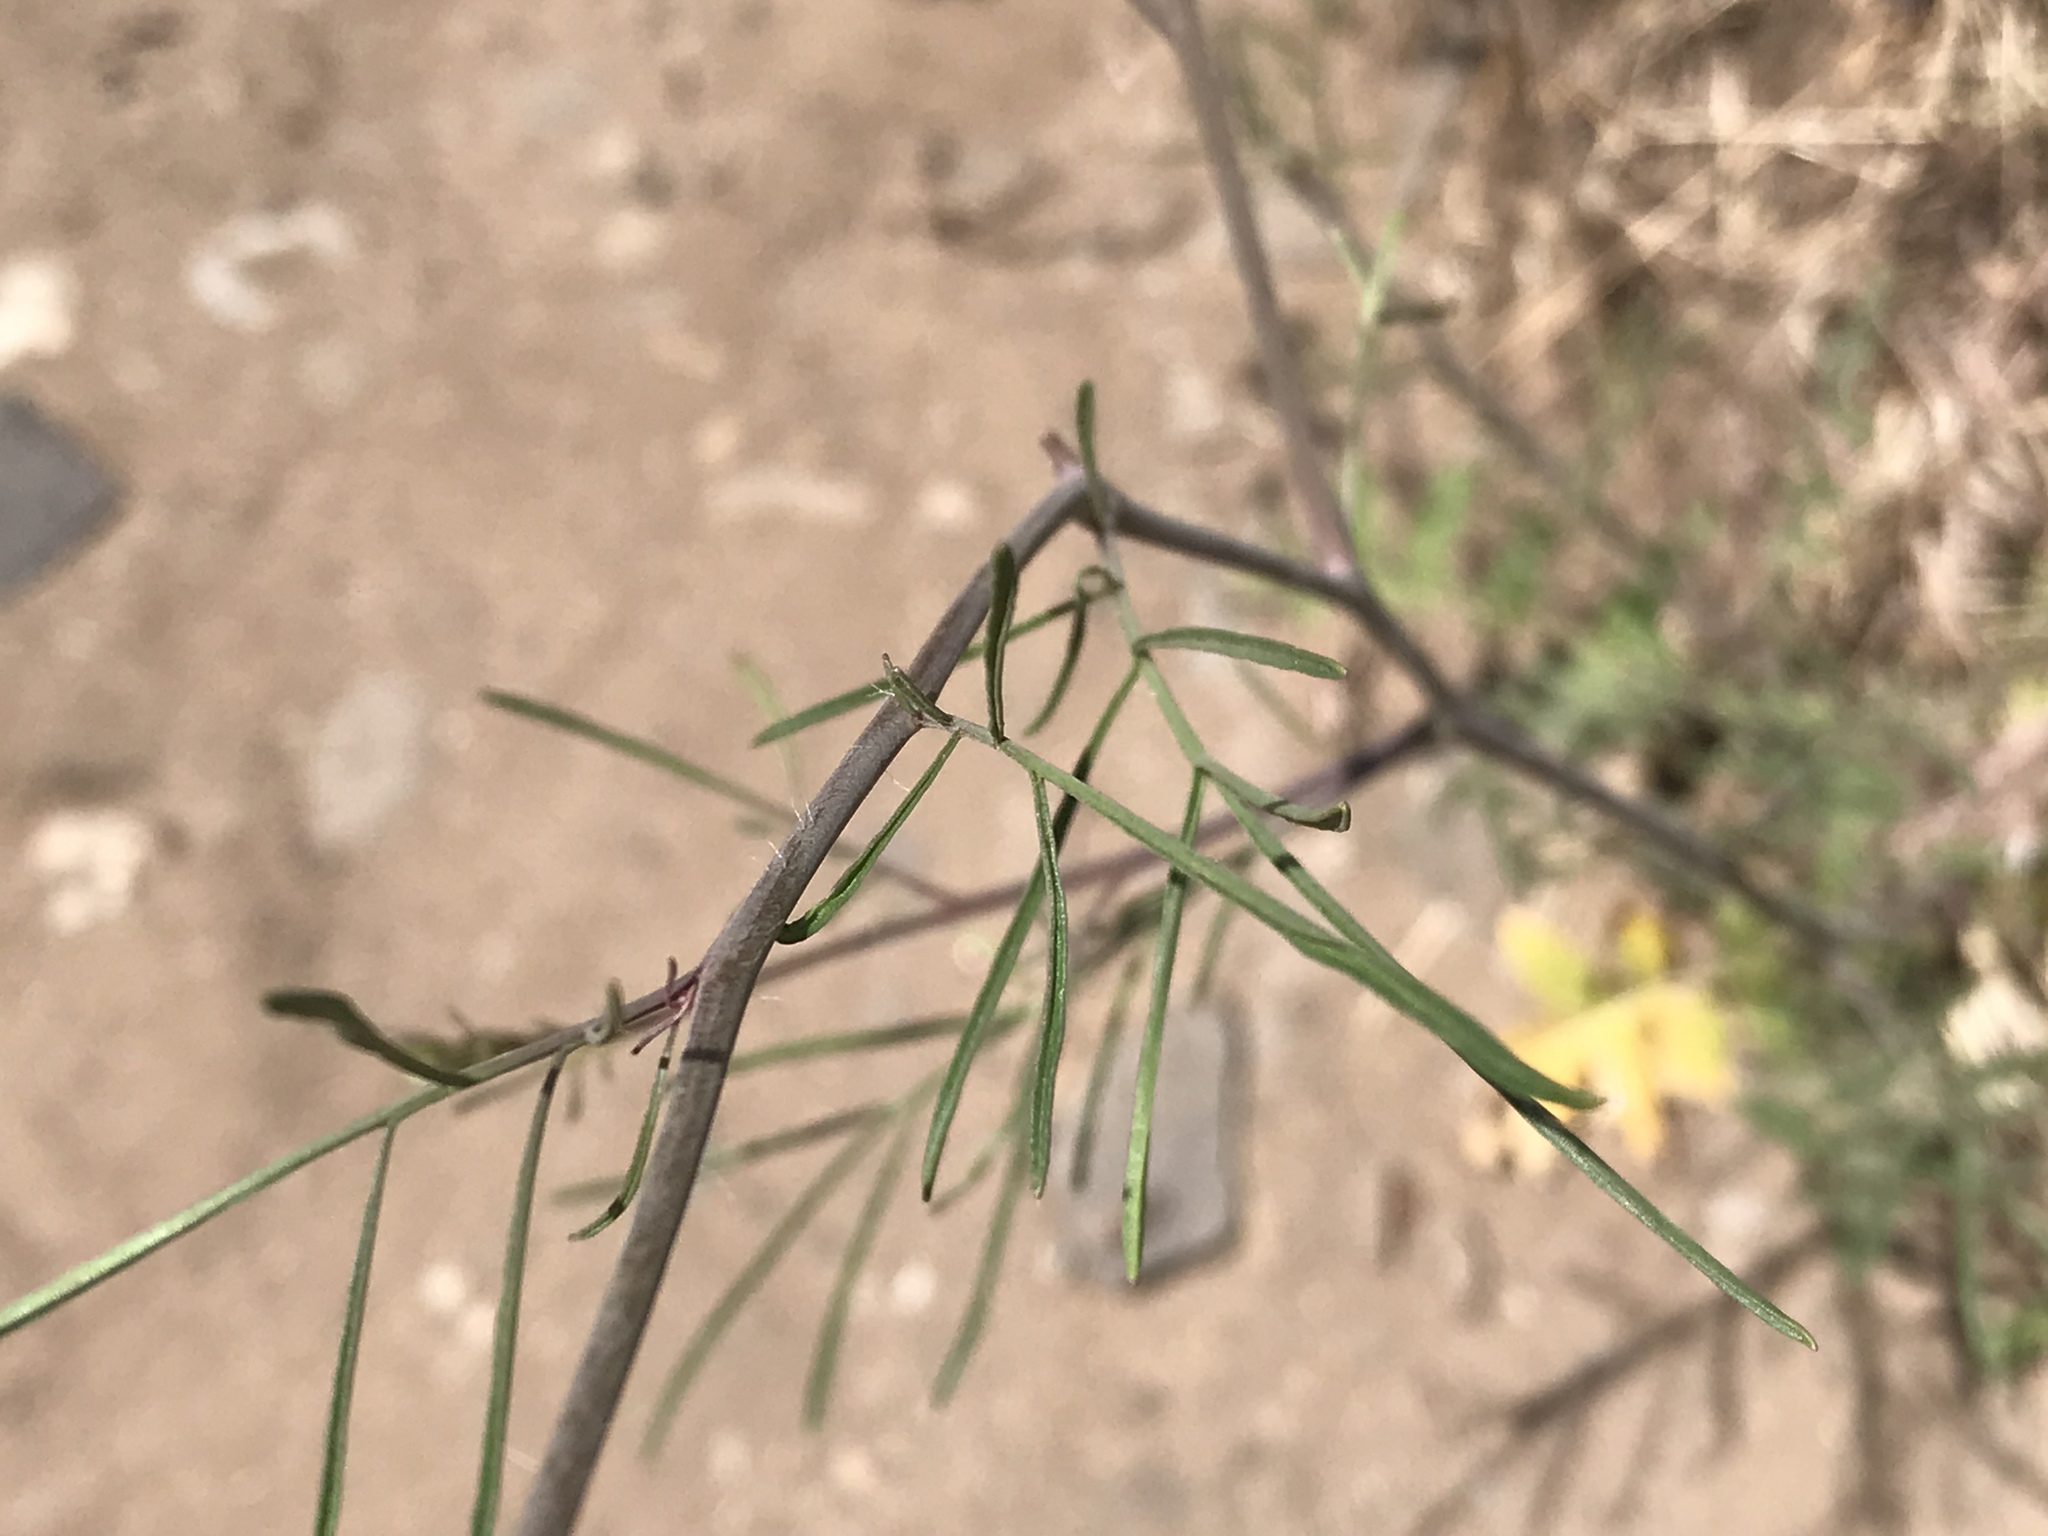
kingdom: Plantae
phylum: Tracheophyta
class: Magnoliopsida
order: Brassicales
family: Brassicaceae
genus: Sisymbrium
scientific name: Sisymbrium altissimum
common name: Tall rocket
